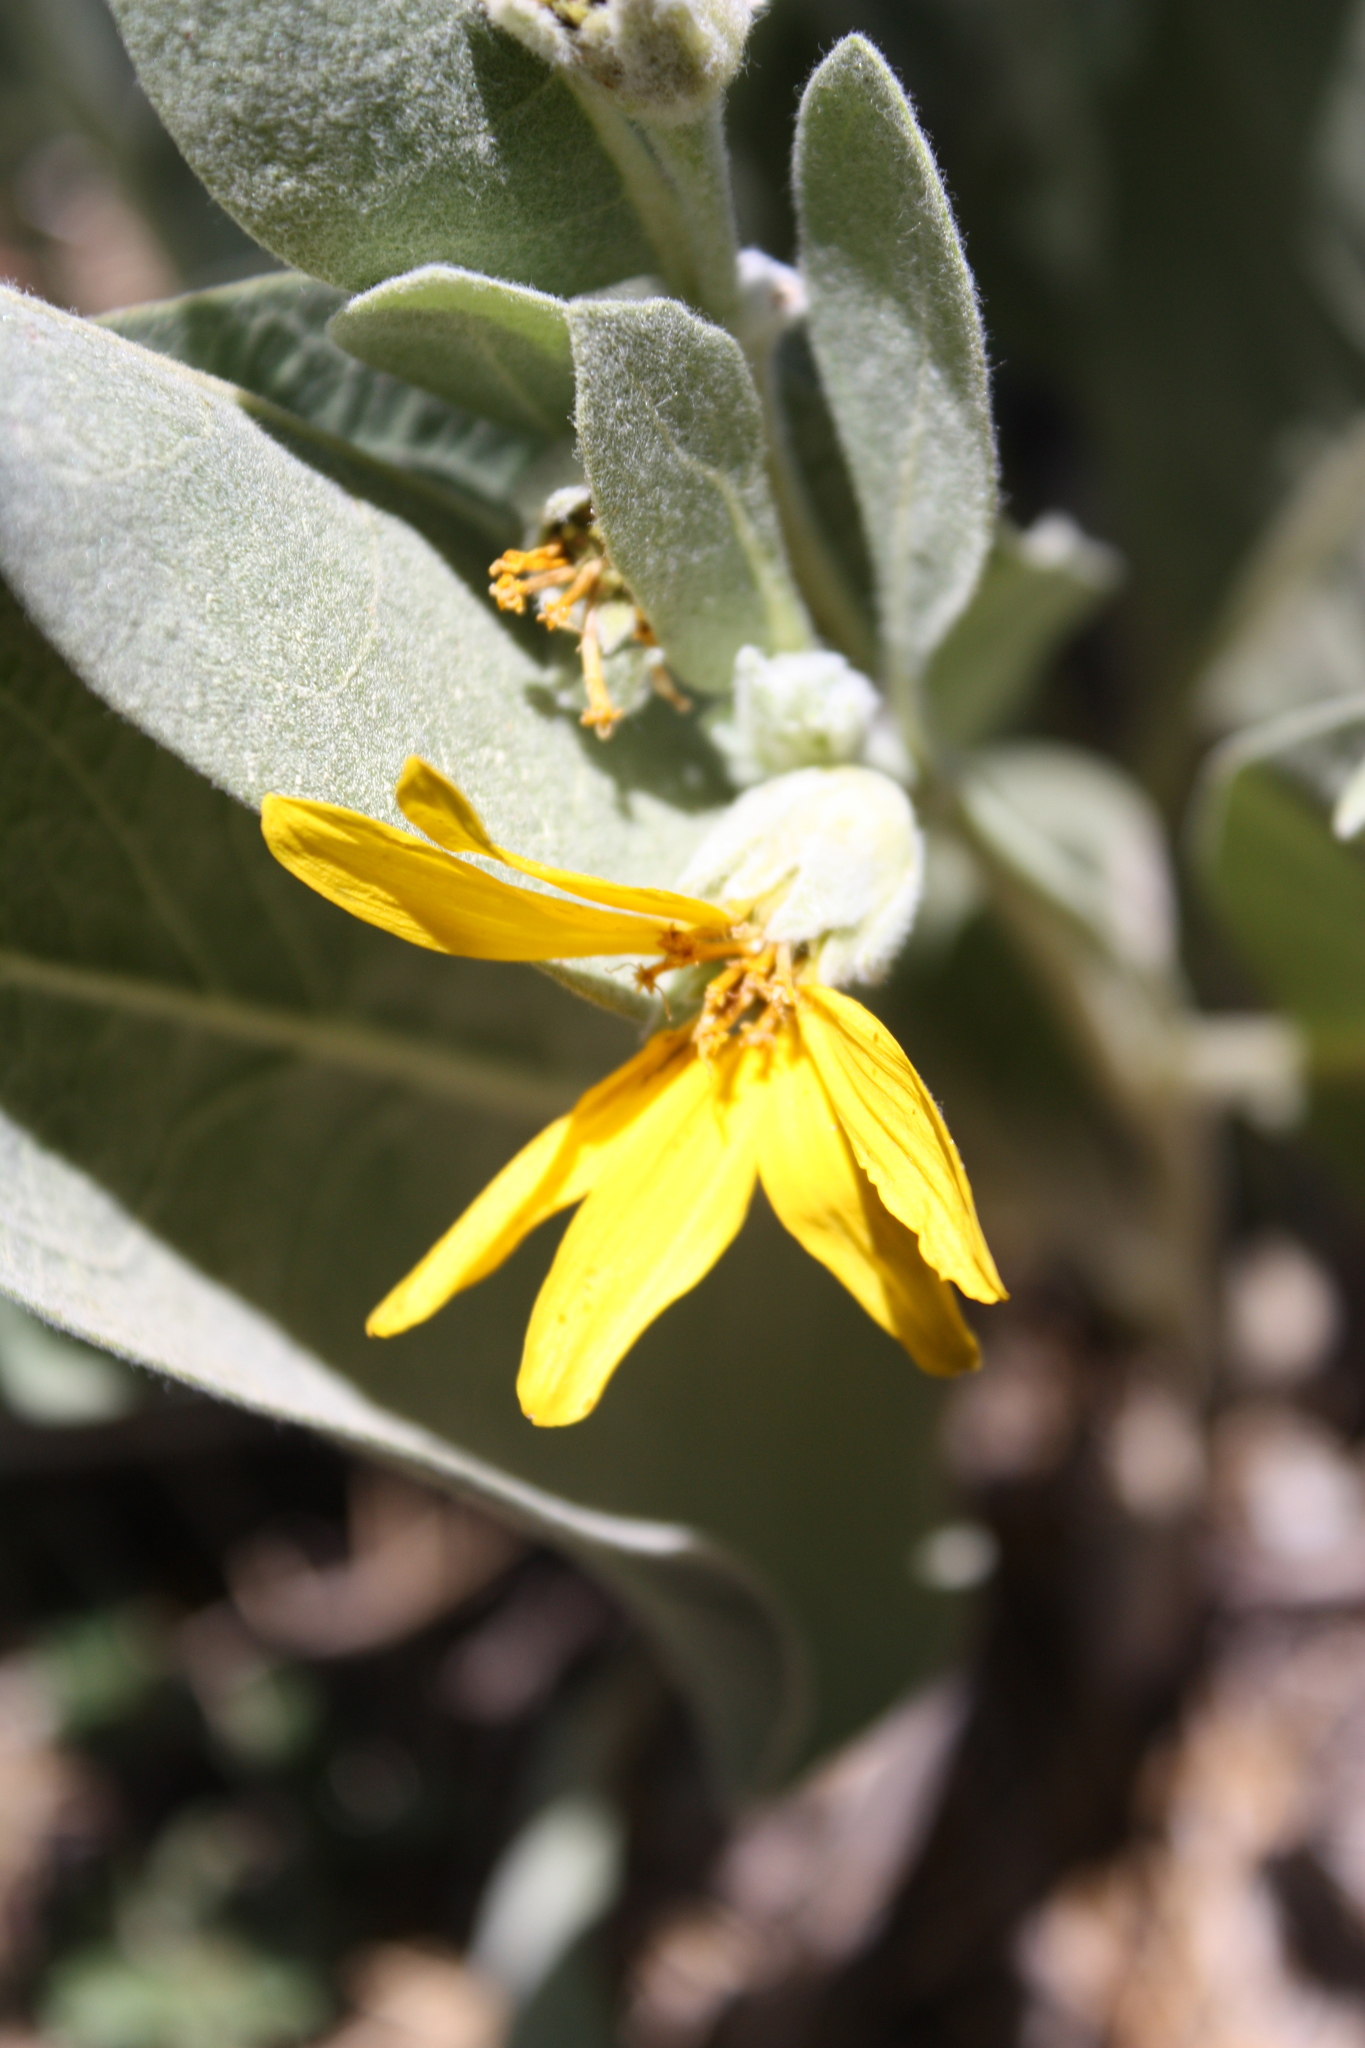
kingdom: Plantae
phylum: Tracheophyta
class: Magnoliopsida
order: Asterales
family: Asteraceae
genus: Wyethia
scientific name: Wyethia mollis
